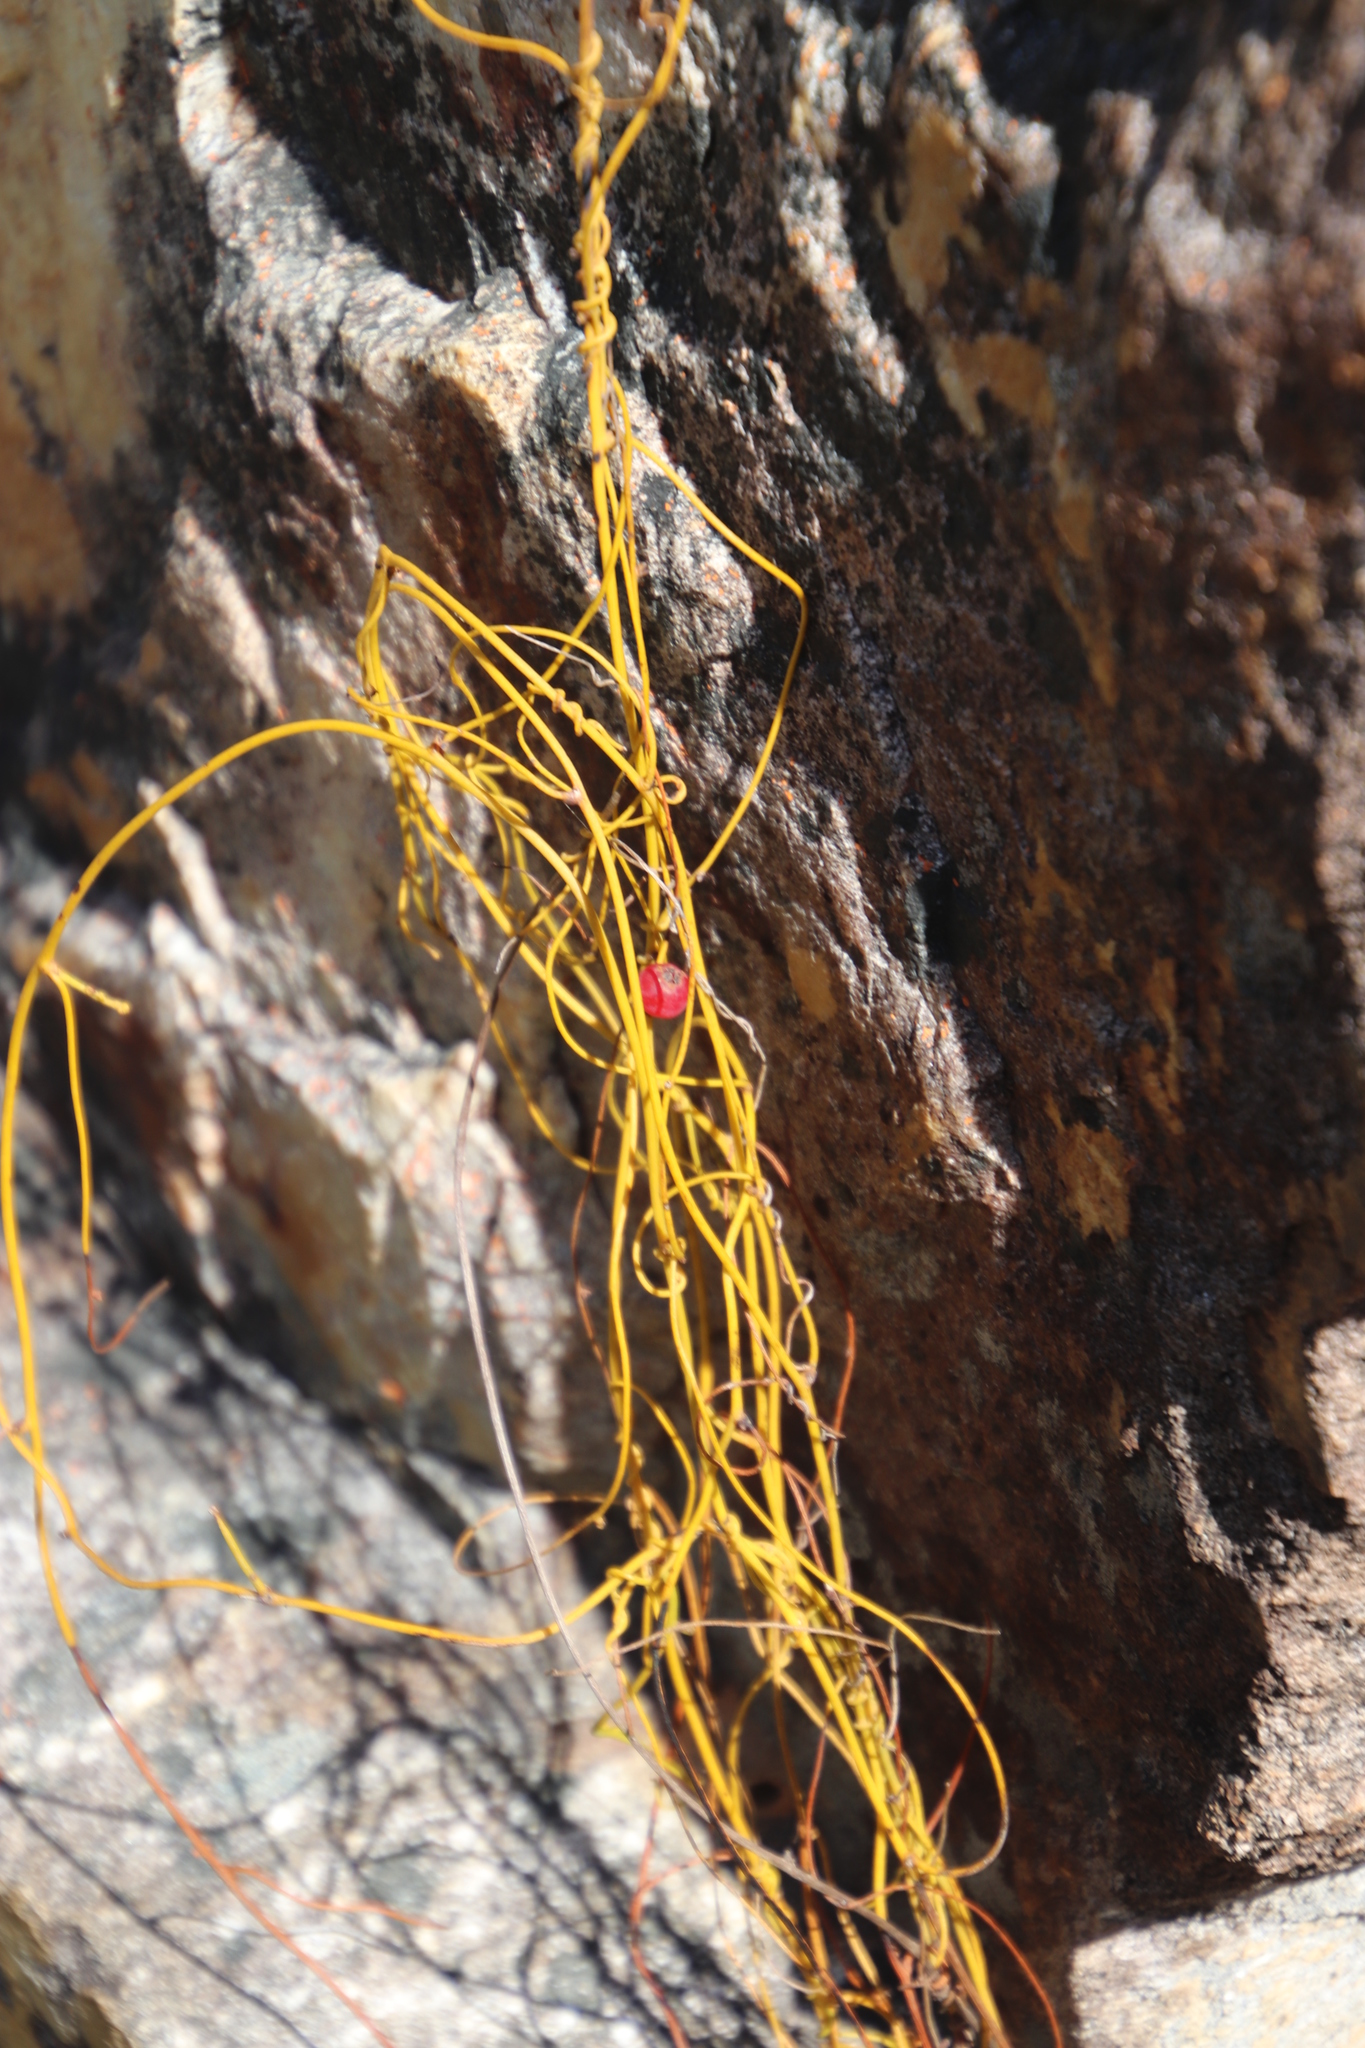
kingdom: Plantae
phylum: Tracheophyta
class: Magnoliopsida
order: Laurales
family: Lauraceae
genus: Cassytha
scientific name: Cassytha ciliolata
